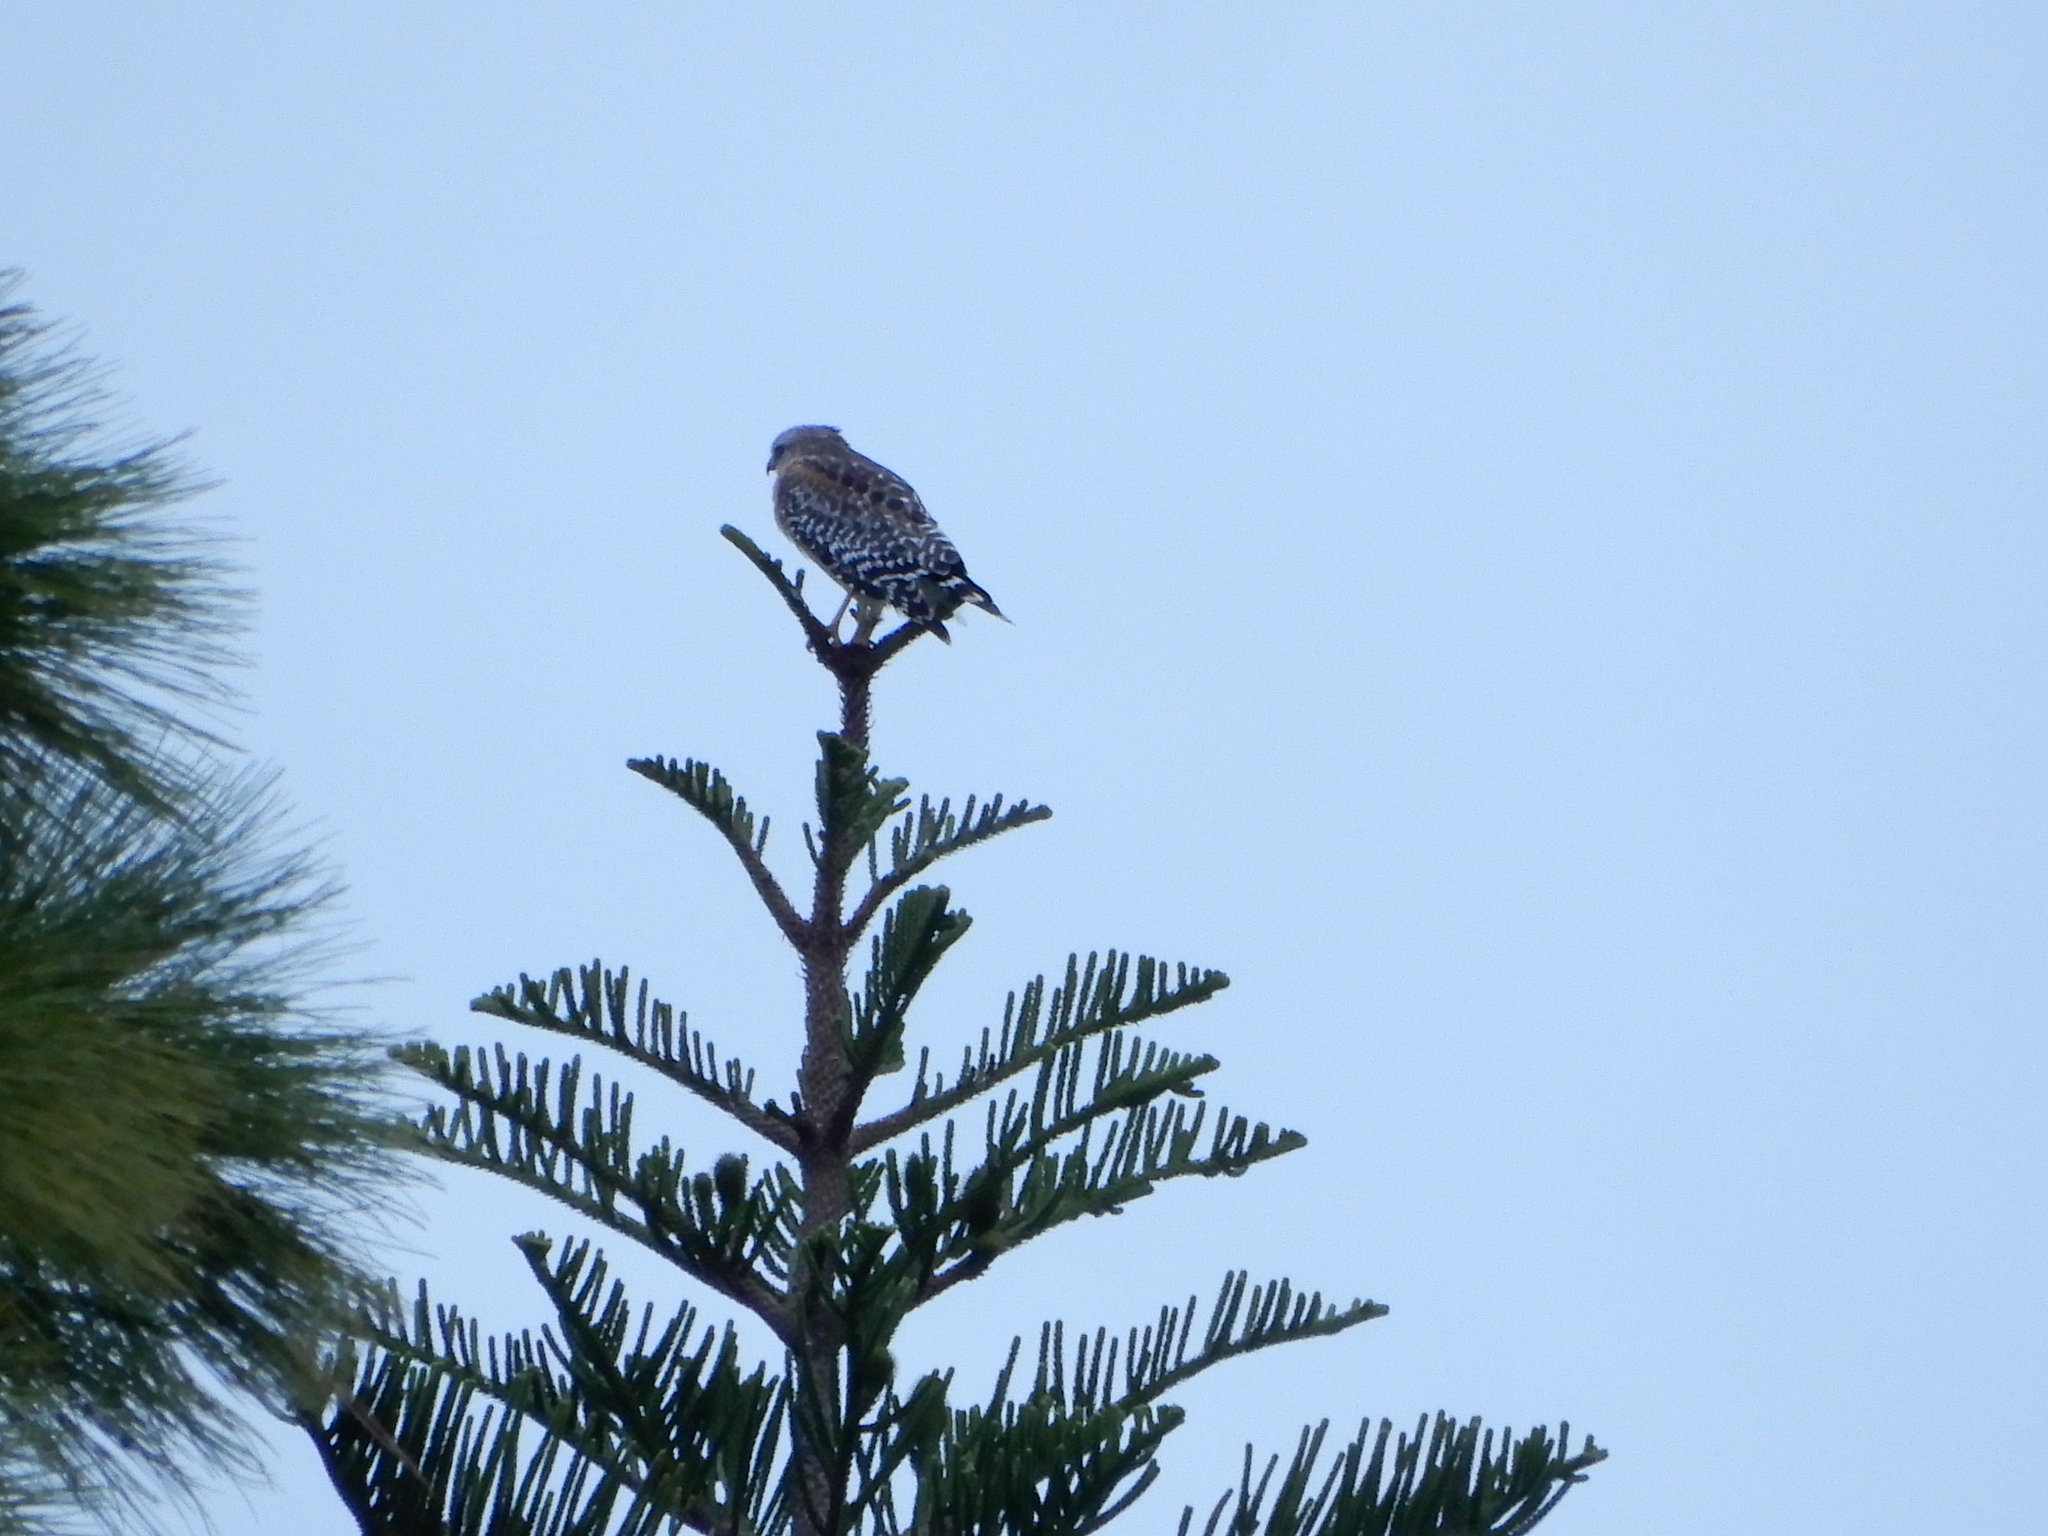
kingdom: Animalia
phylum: Chordata
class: Aves
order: Accipitriformes
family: Accipitridae
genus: Buteo
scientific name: Buteo lineatus
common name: Red-shouldered hawk
